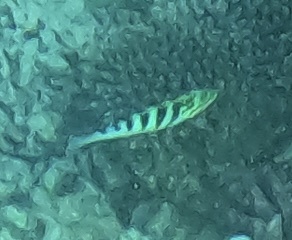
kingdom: Animalia
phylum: Chordata
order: Perciformes
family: Labridae
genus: Thalassoma
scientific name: Thalassoma hardwicke
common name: Sixbar wrasse
